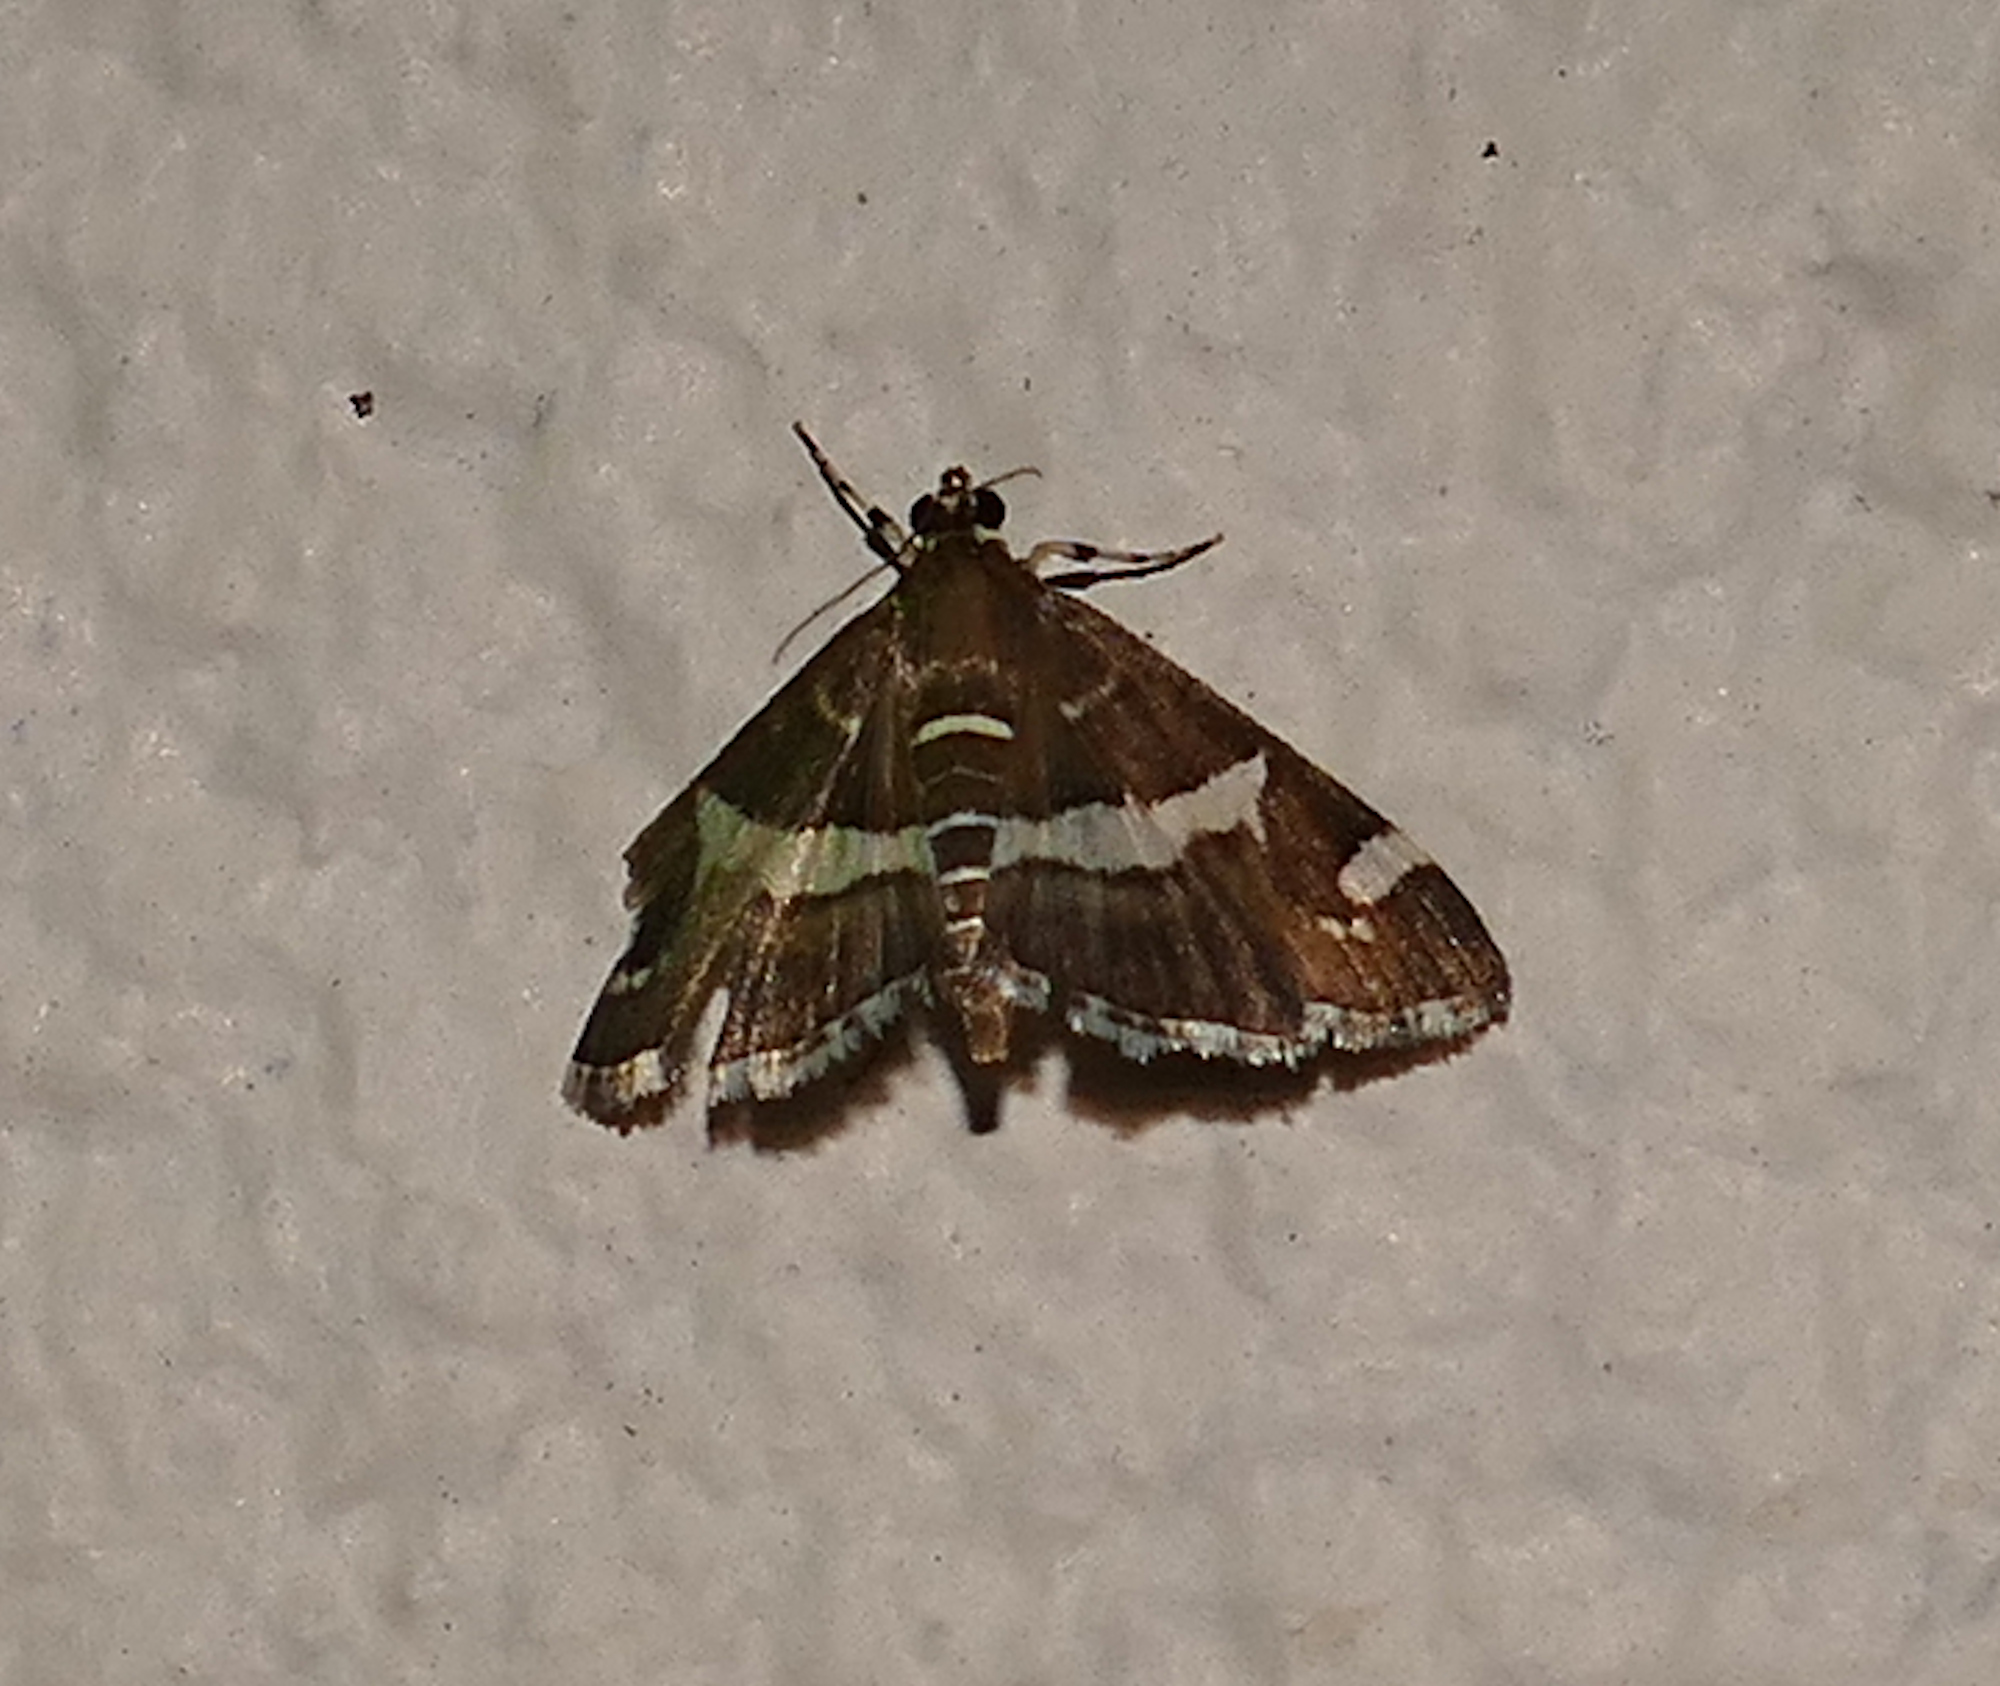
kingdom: Animalia
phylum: Arthropoda
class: Insecta
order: Lepidoptera
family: Crambidae
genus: Spoladea
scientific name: Spoladea recurvalis
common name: Beet webworm moth
